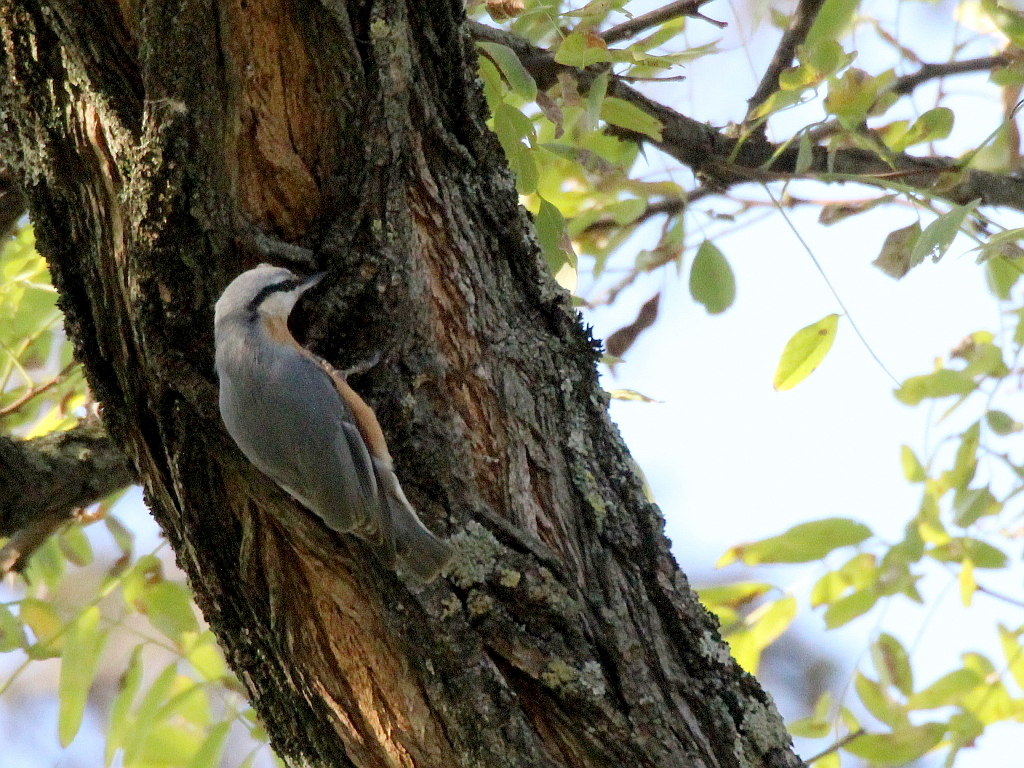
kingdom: Animalia
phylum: Chordata
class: Aves
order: Passeriformes
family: Sittidae
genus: Sitta
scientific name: Sitta europaea
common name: Eurasian nuthatch
